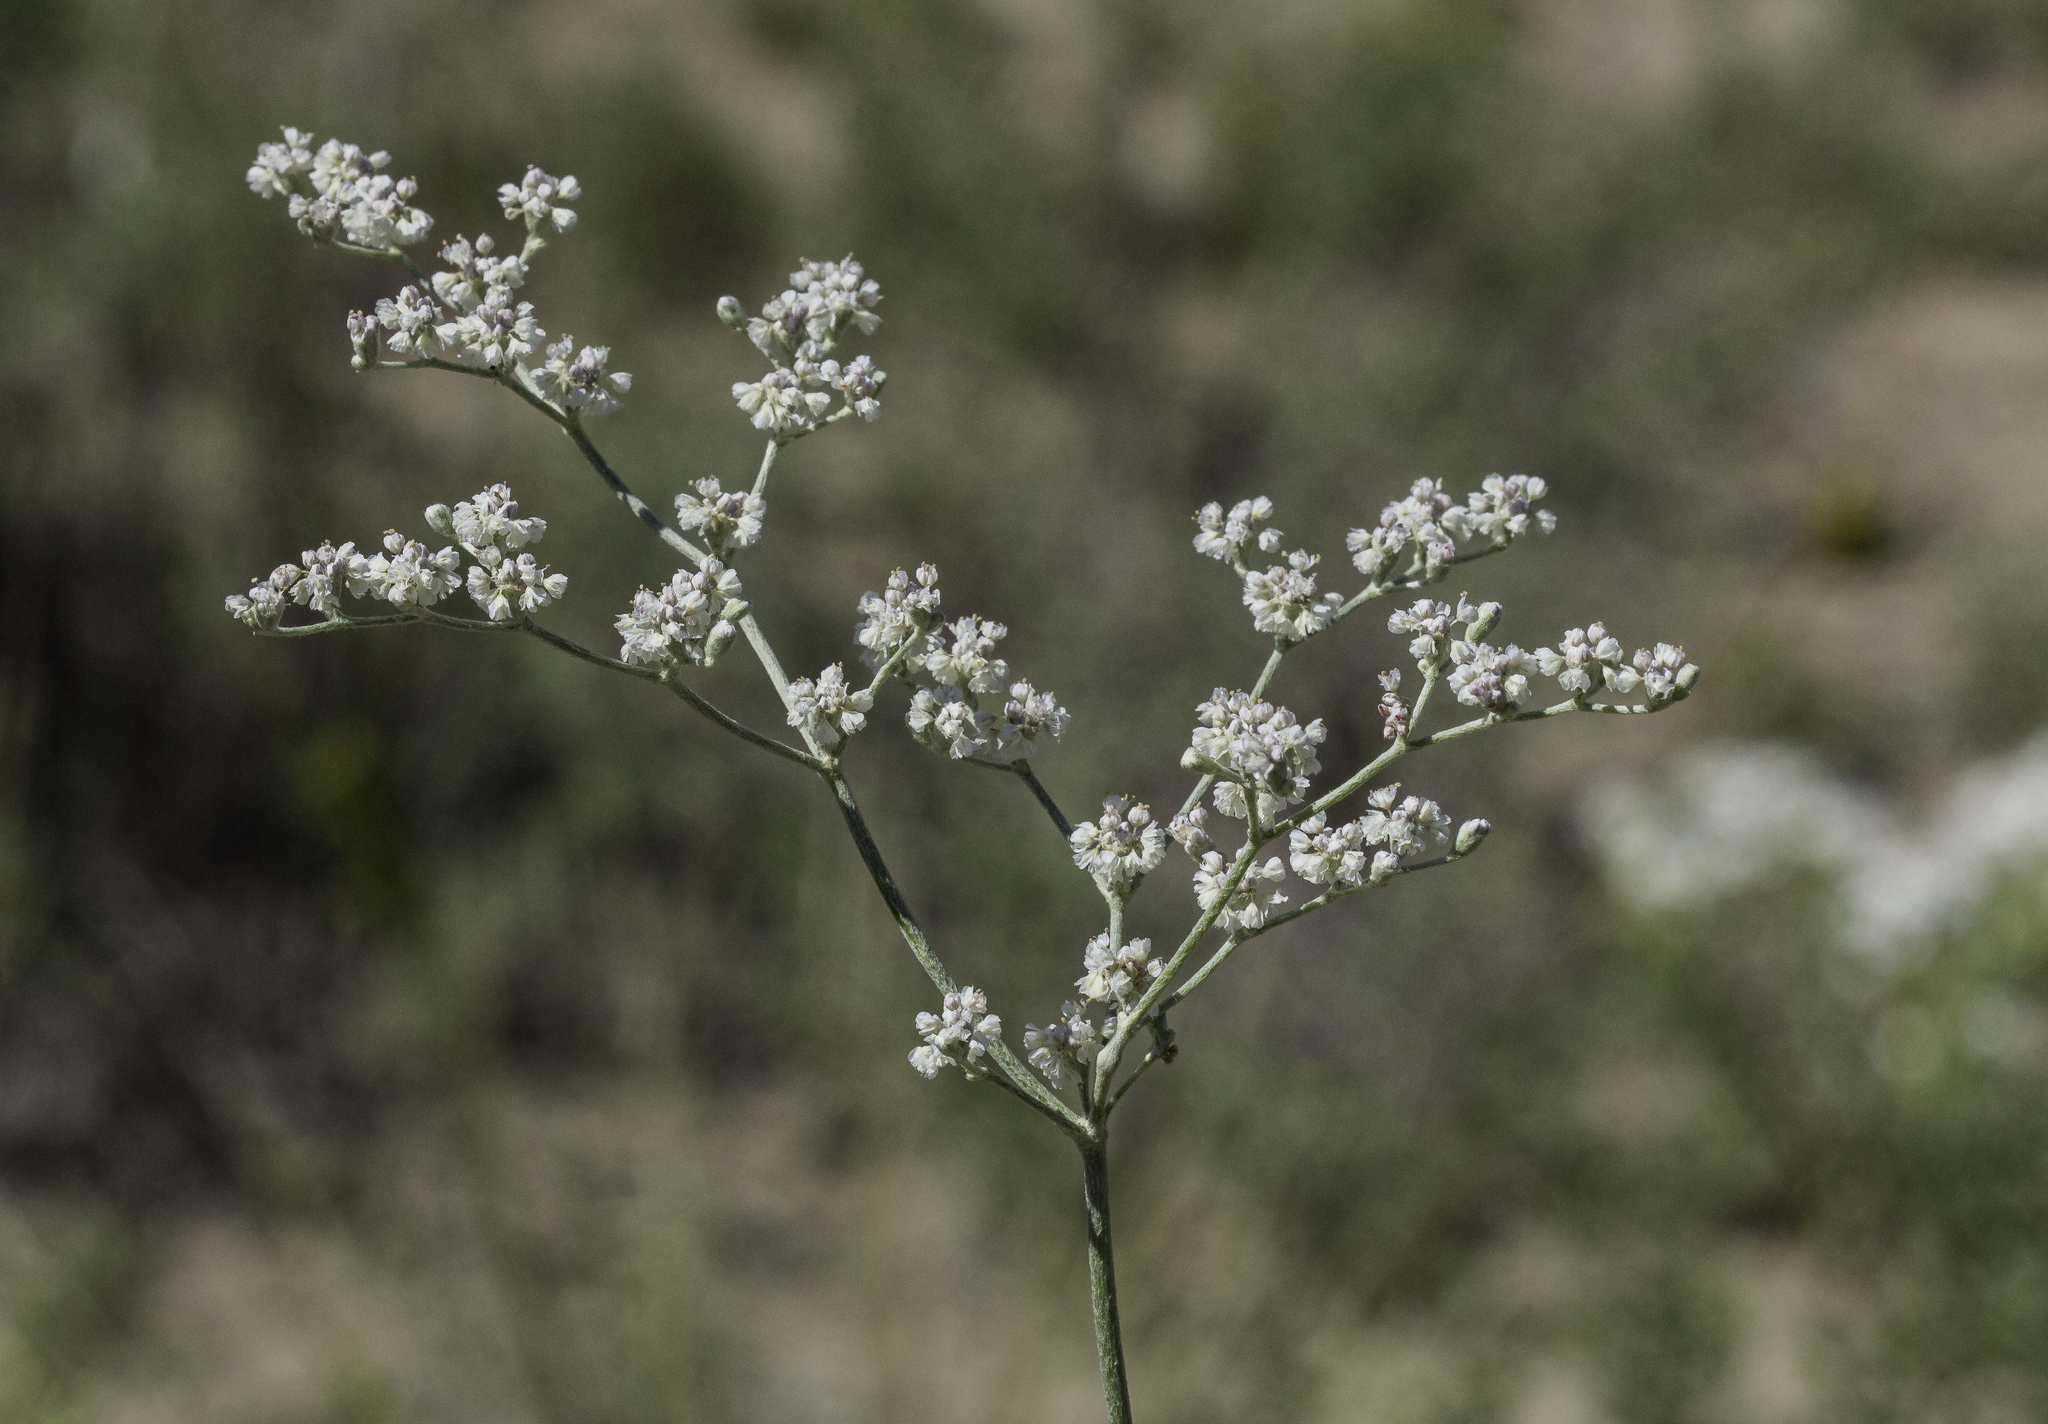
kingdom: Plantae
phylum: Tracheophyta
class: Magnoliopsida
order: Caryophyllales
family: Polygonaceae
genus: Eriogonum
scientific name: Eriogonum annuum
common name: Annual wild buckwheat
